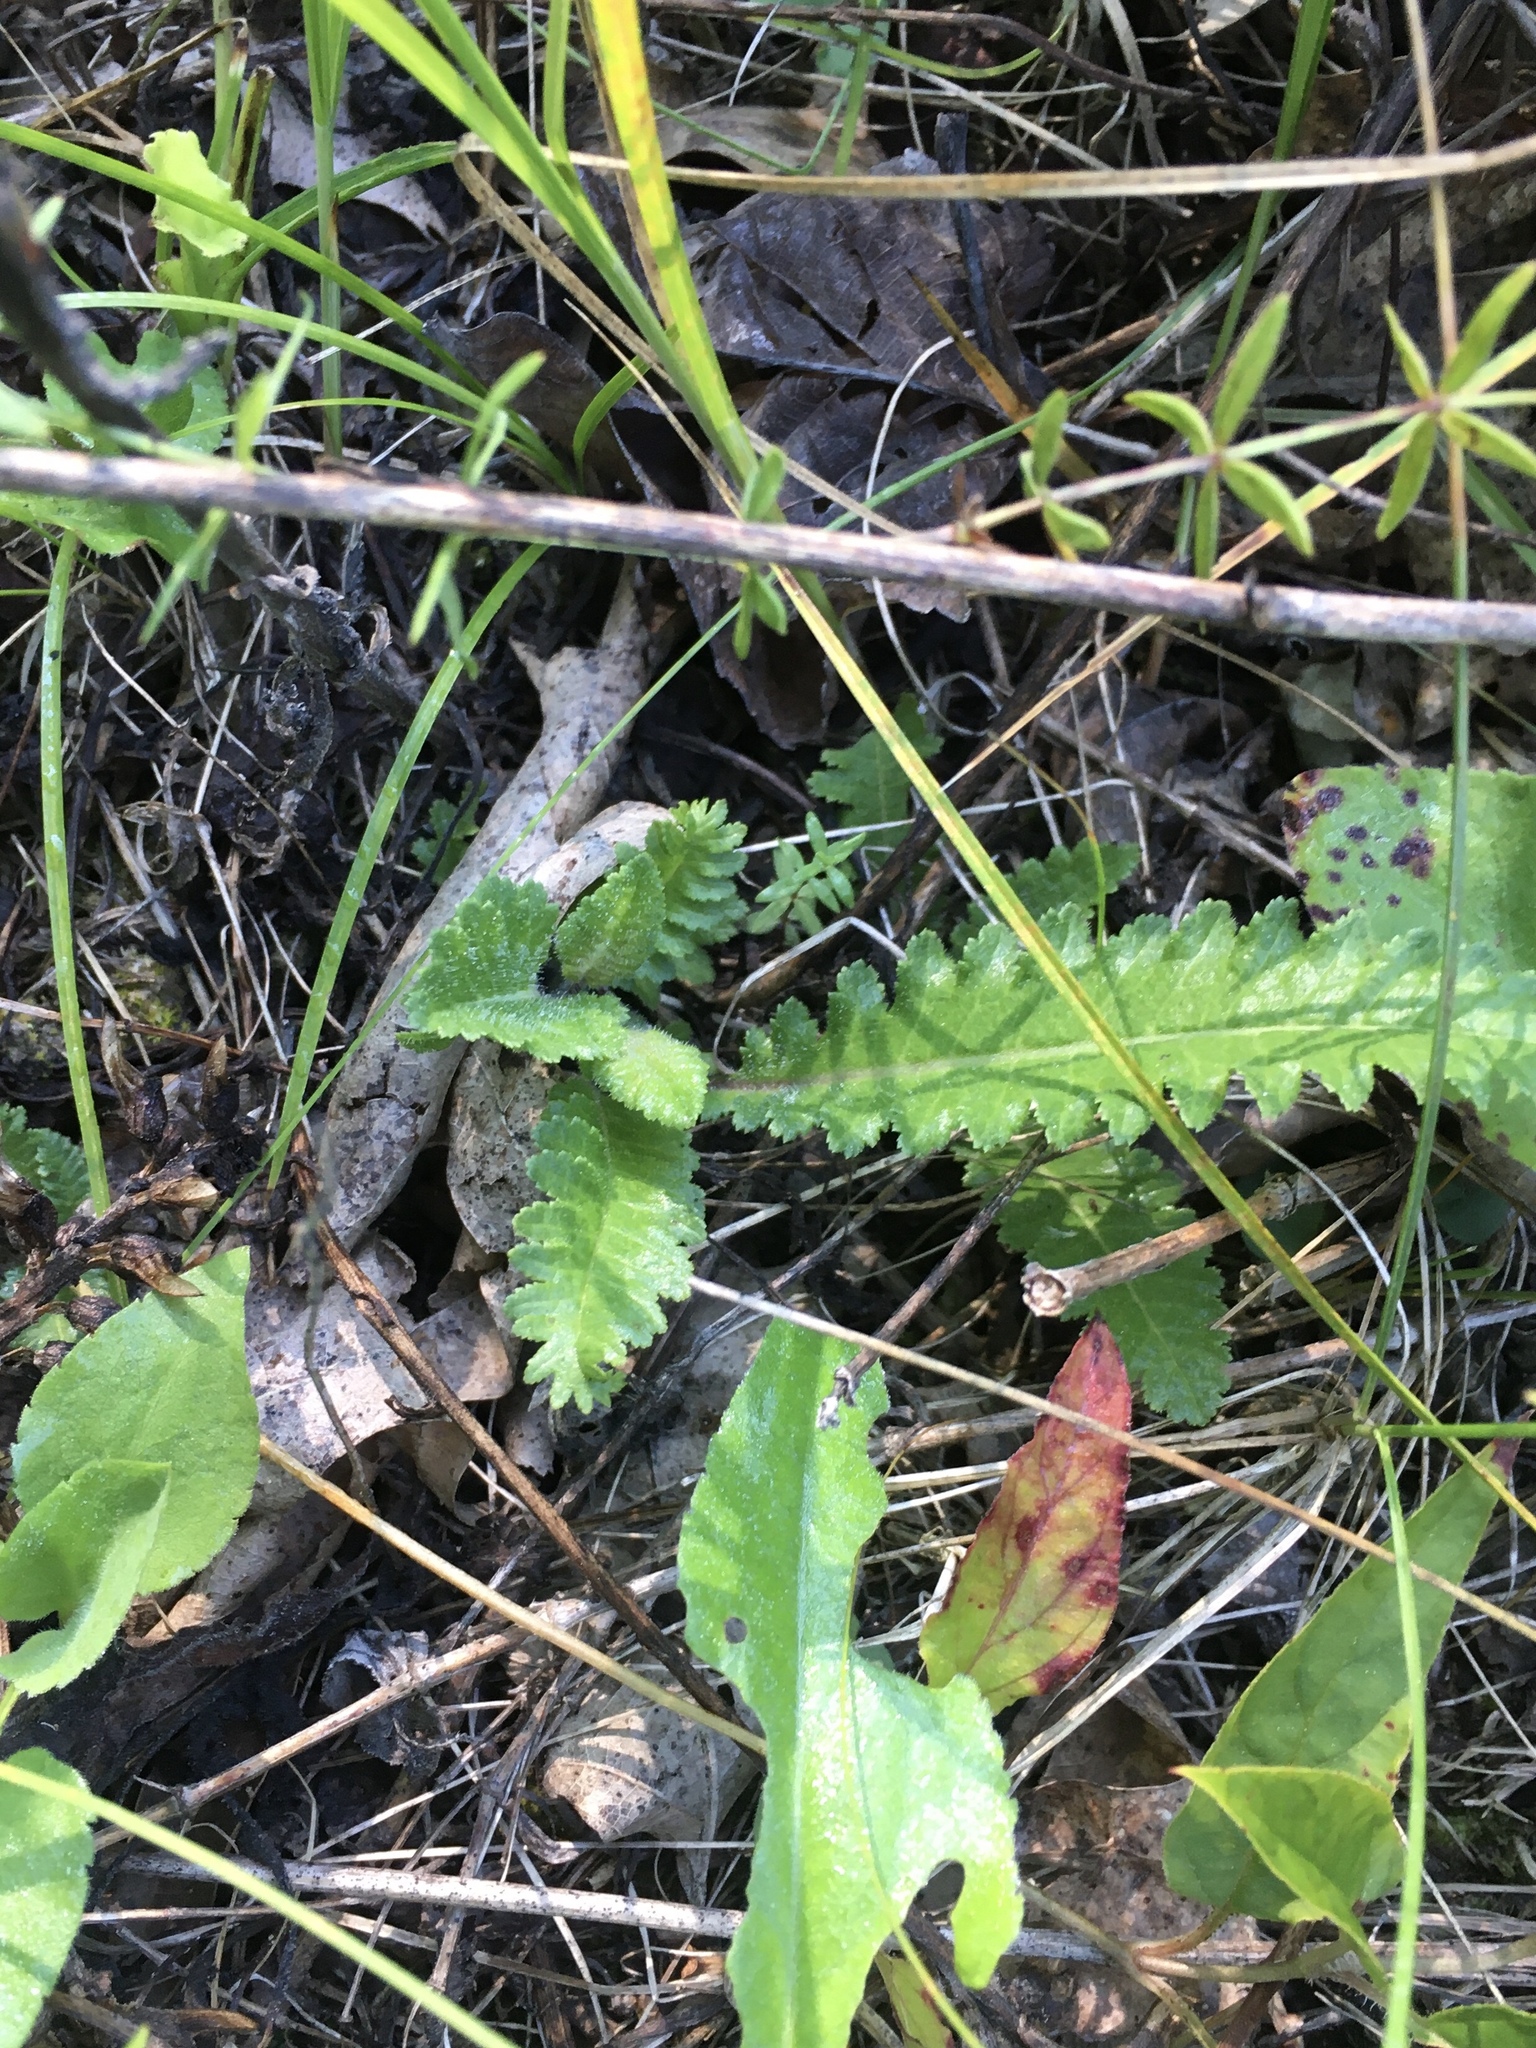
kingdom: Plantae
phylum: Tracheophyta
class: Magnoliopsida
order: Lamiales
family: Orobanchaceae
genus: Pedicularis
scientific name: Pedicularis canadensis
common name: Early lousewort
